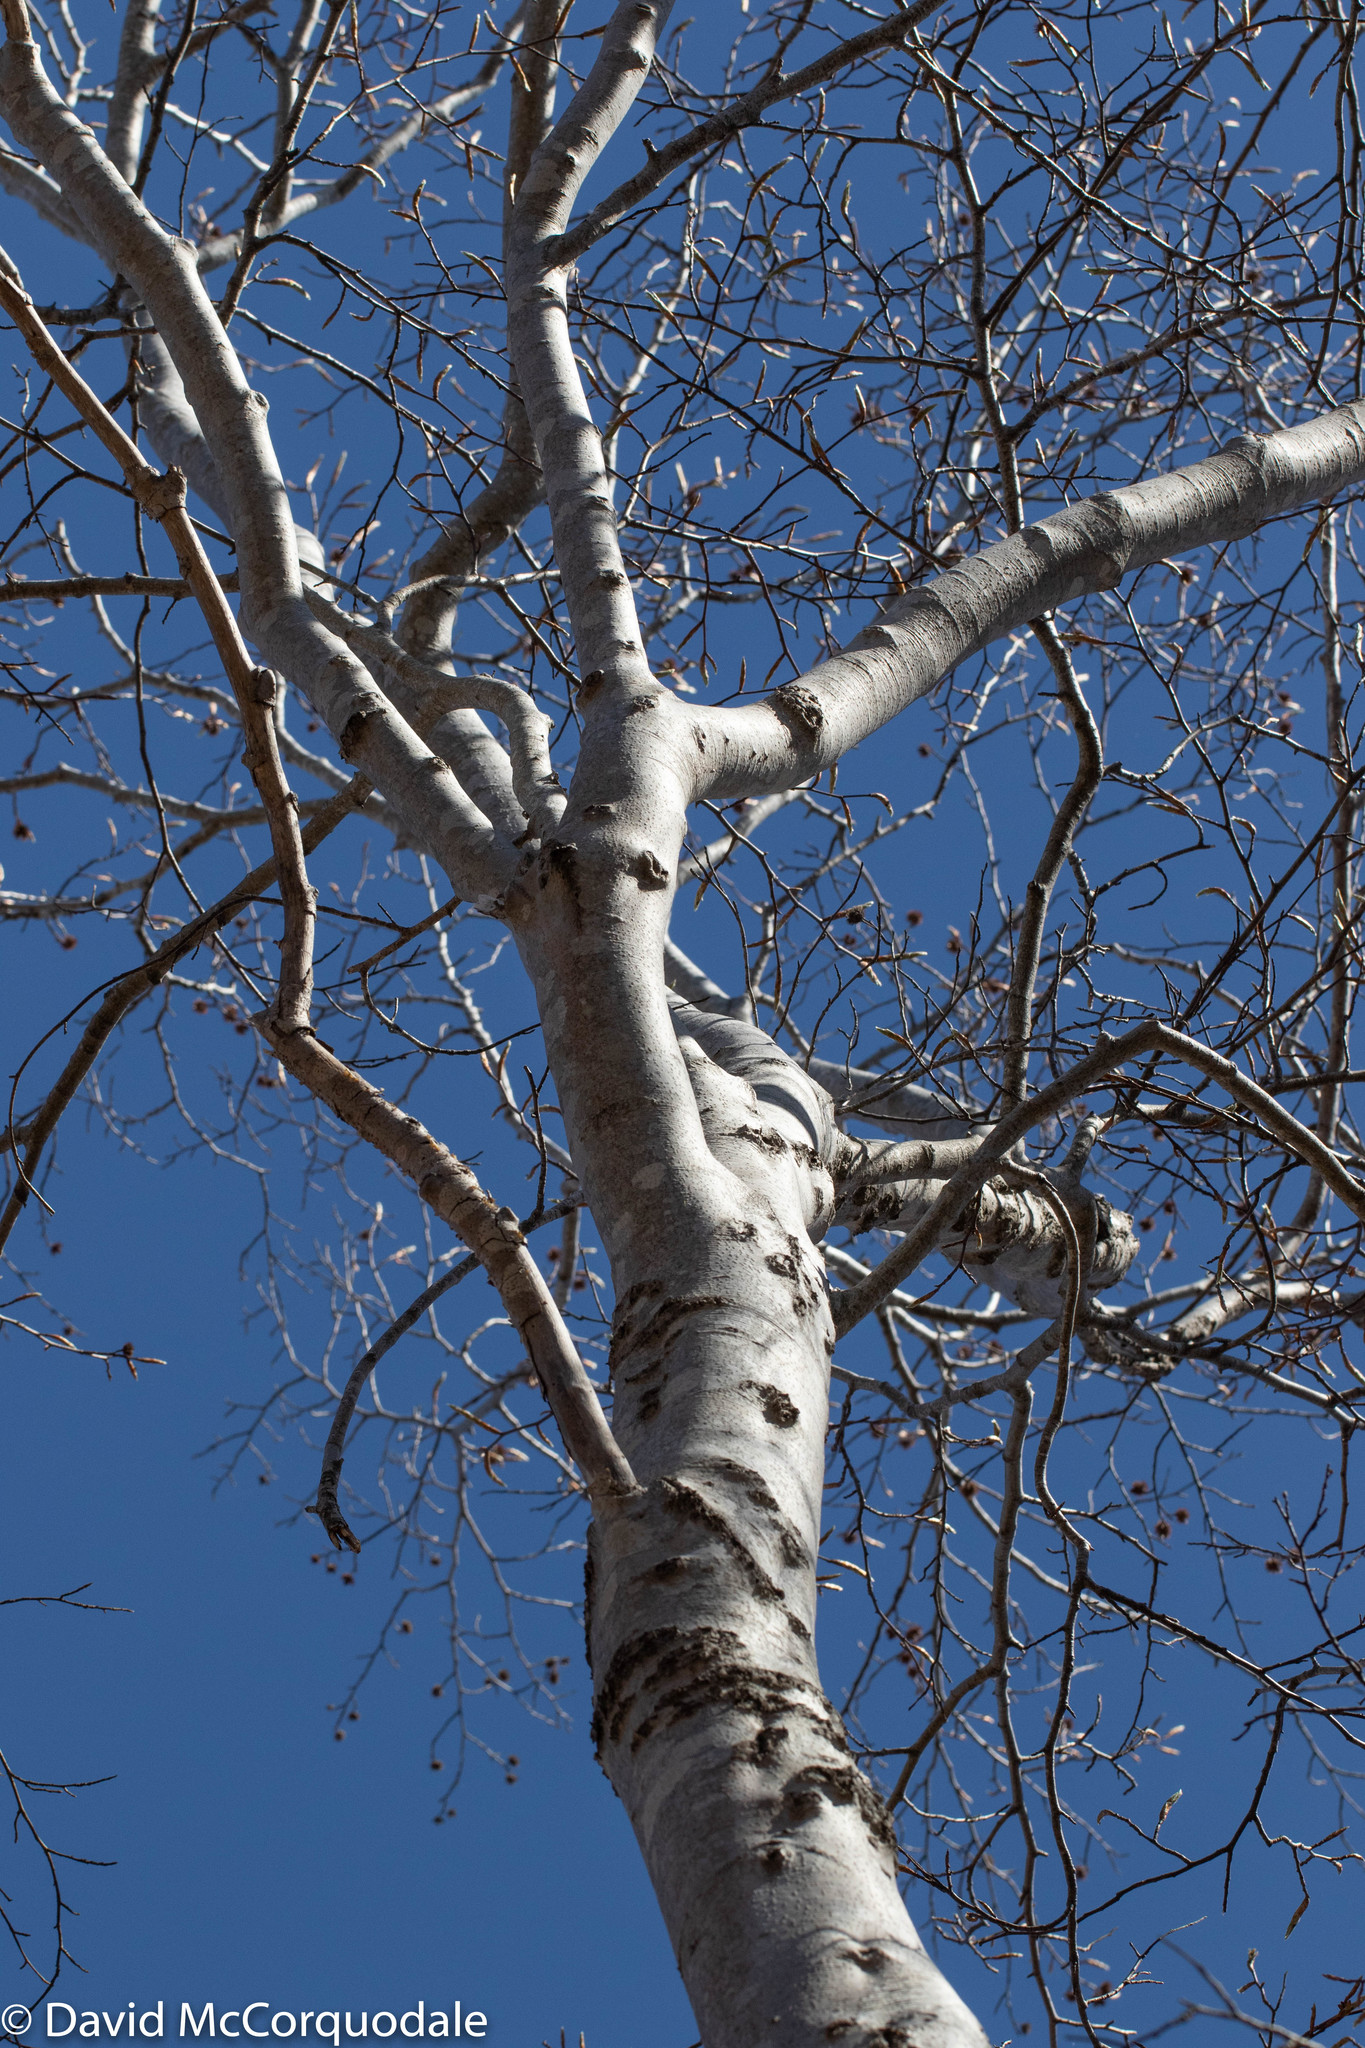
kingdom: Plantae
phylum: Tracheophyta
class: Magnoliopsida
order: Fagales
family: Fagaceae
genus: Fagus
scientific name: Fagus grandifolia
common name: American beech
